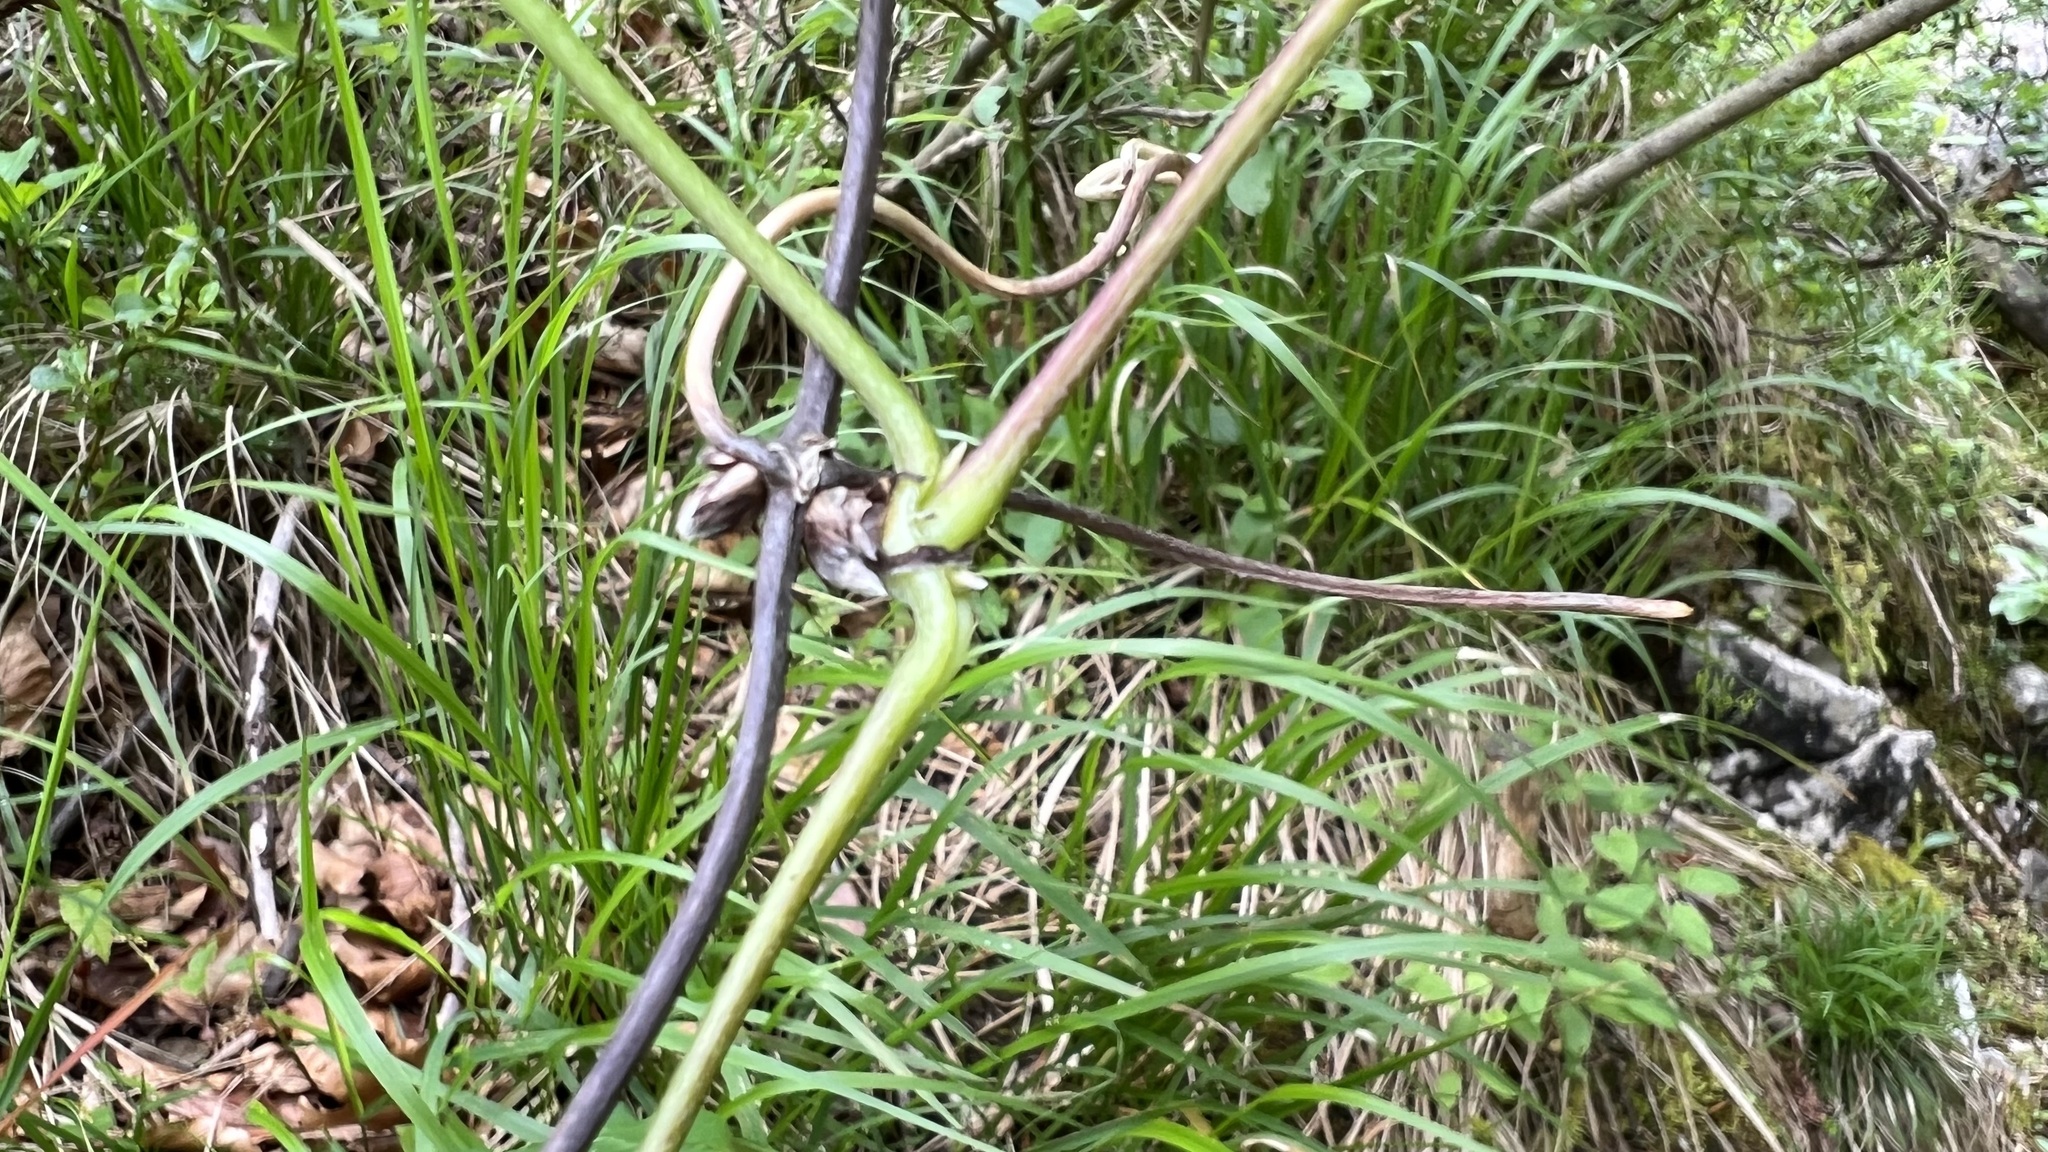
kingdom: Plantae
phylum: Tracheophyta
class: Magnoliopsida
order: Ranunculales
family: Ranunculaceae
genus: Clematis
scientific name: Clematis alpina
